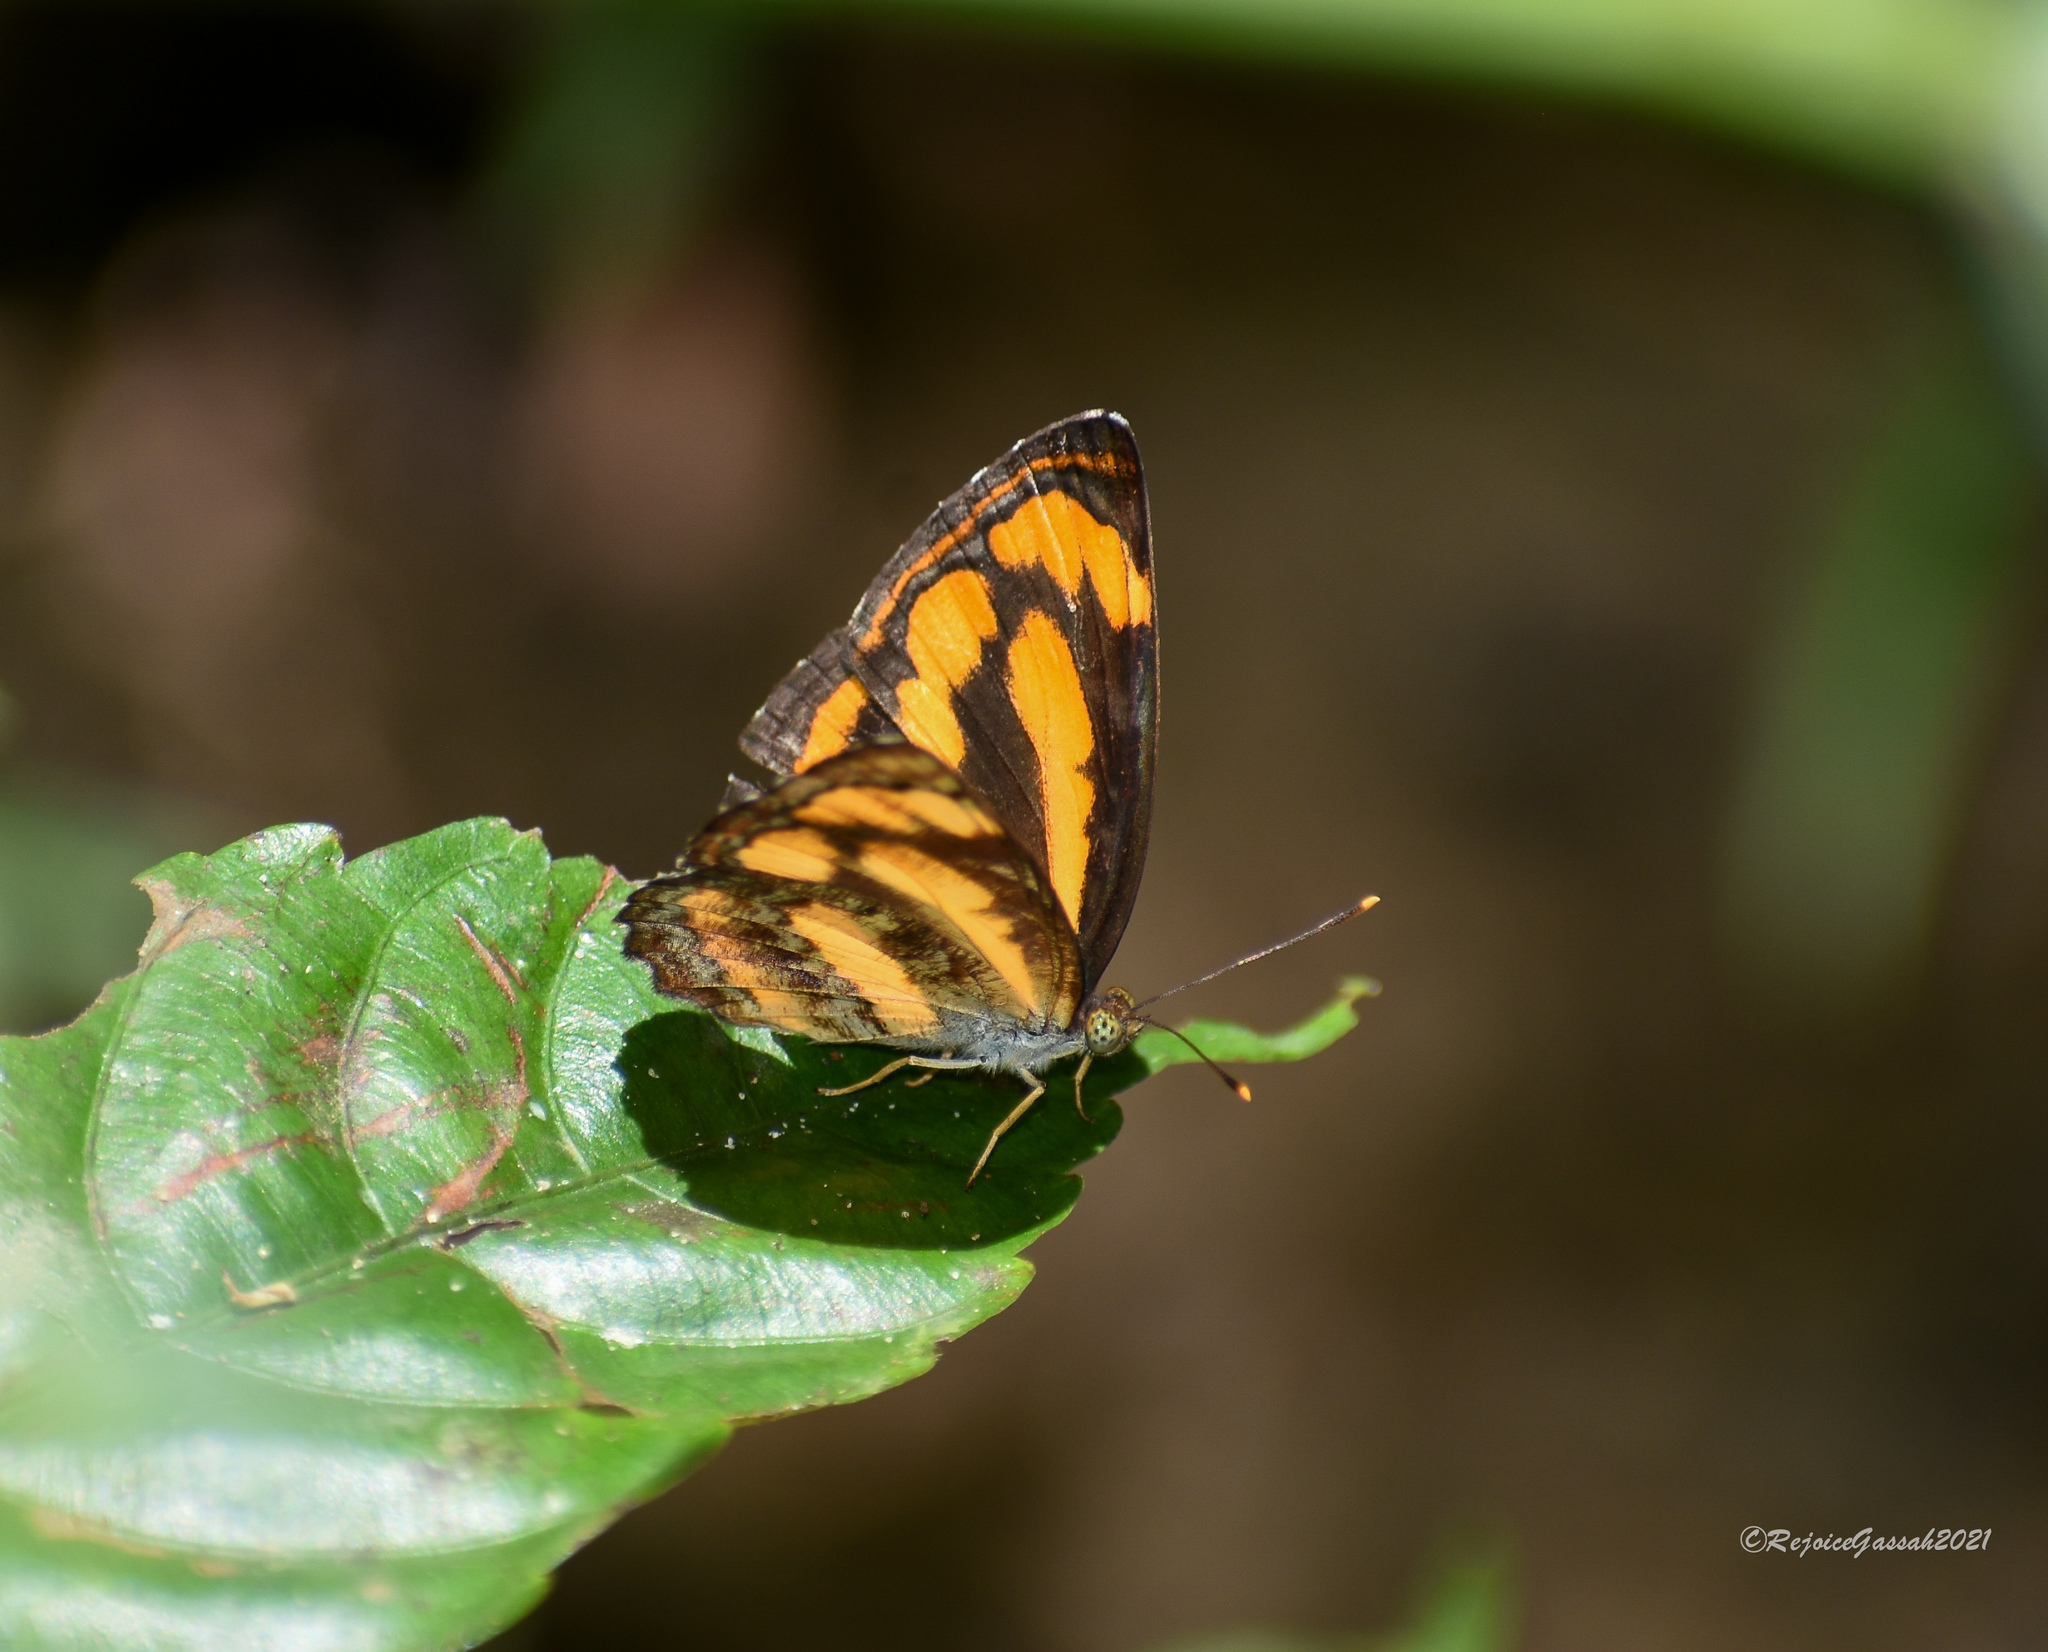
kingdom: Animalia
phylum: Arthropoda
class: Insecta
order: Lepidoptera
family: Nymphalidae
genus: Pantoporia
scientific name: Pantoporia hordonia
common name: Common lascar
